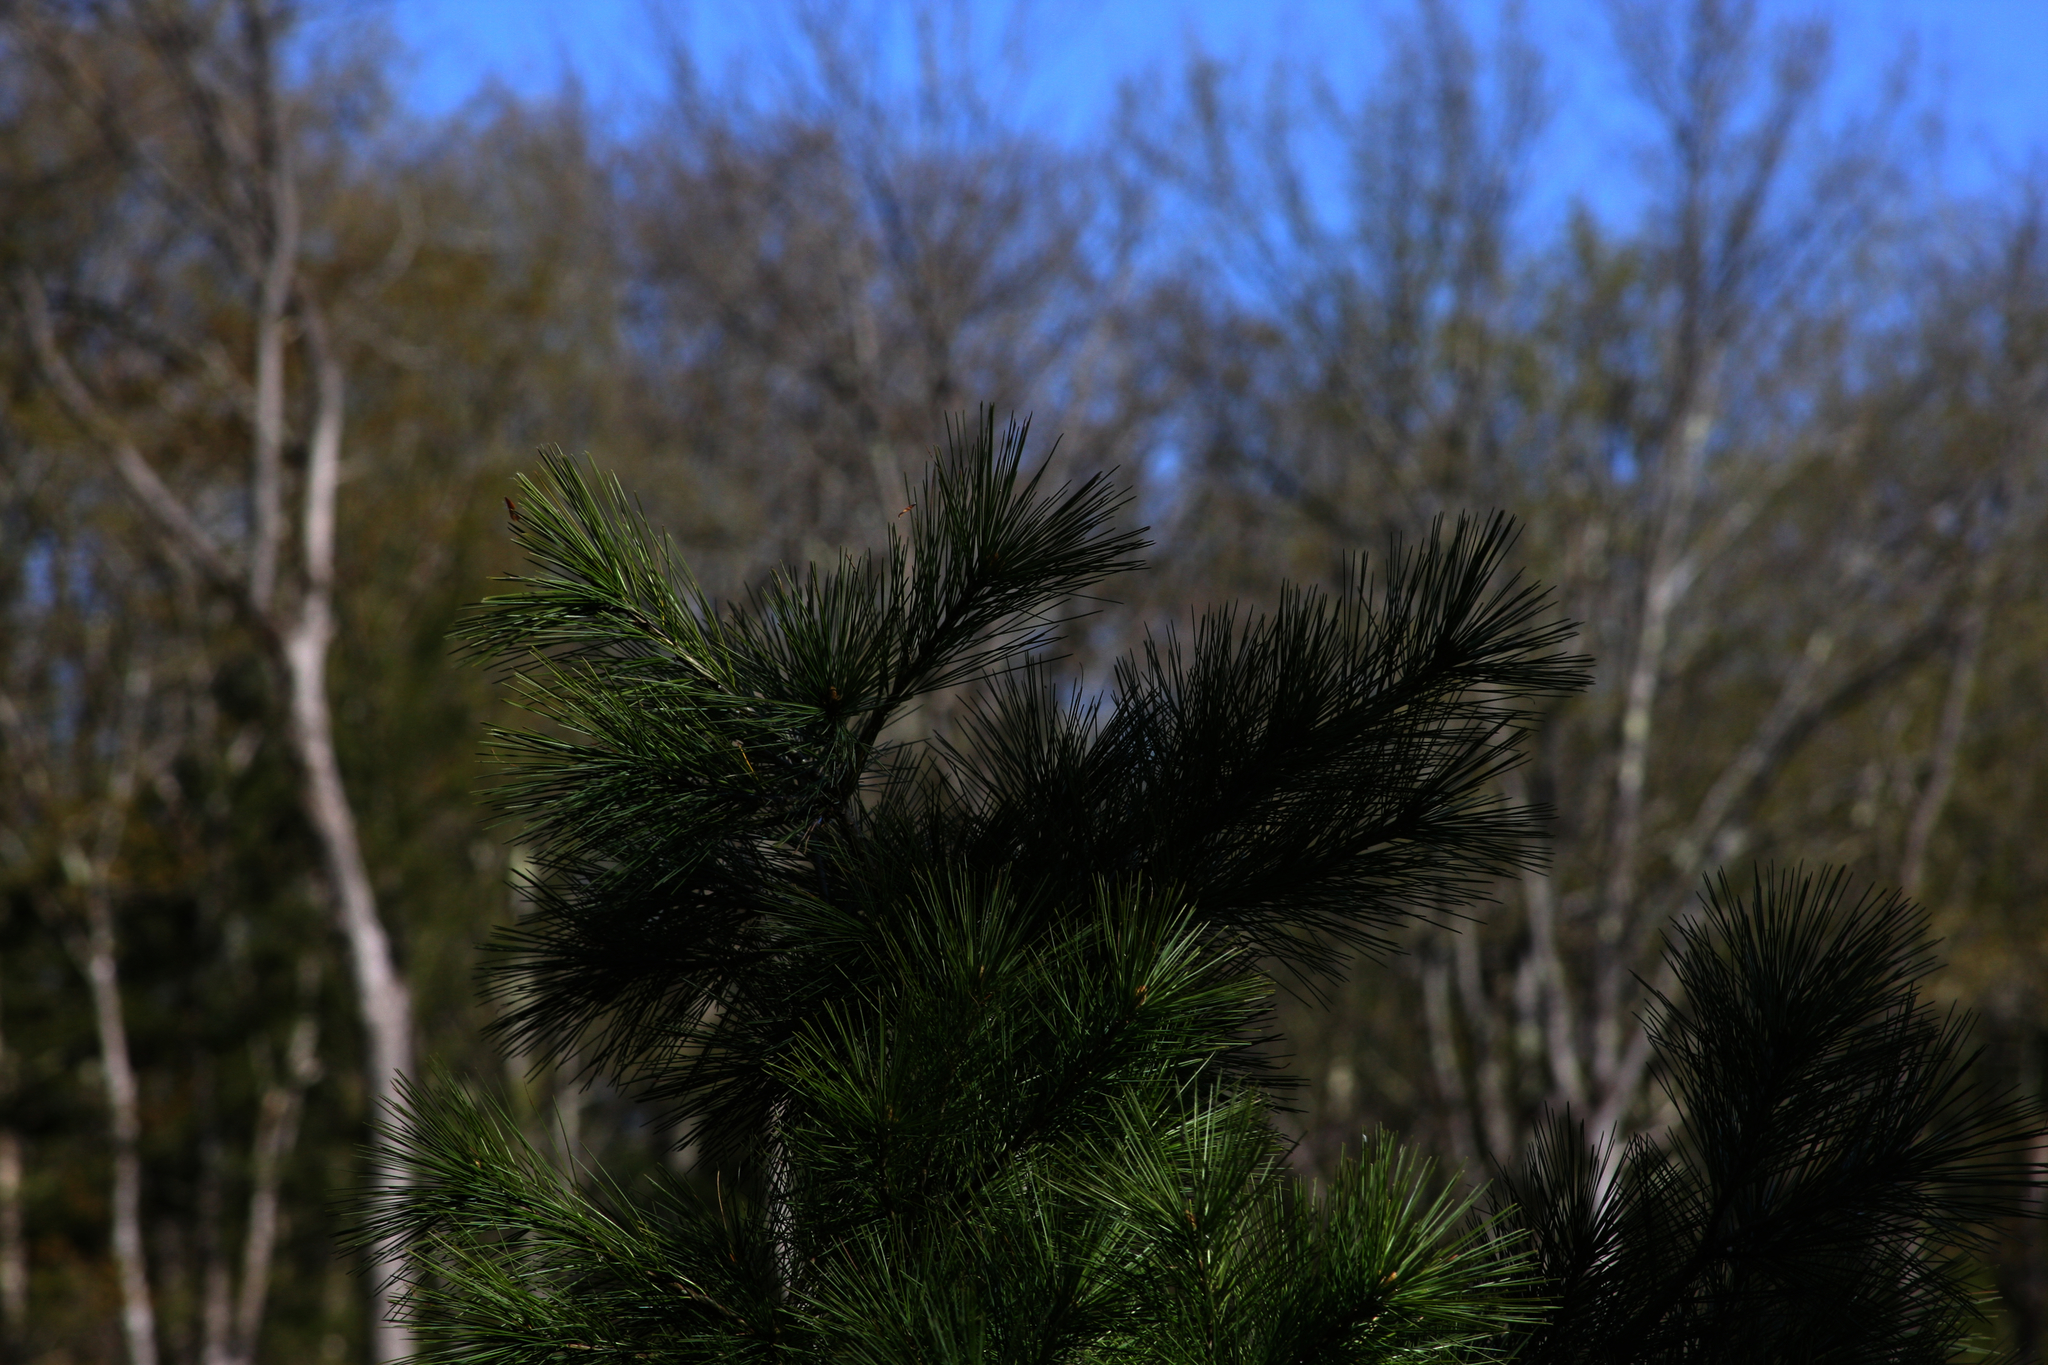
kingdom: Plantae
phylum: Tracheophyta
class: Pinopsida
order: Pinales
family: Pinaceae
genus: Pinus
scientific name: Pinus strobus
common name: Weymouth pine
